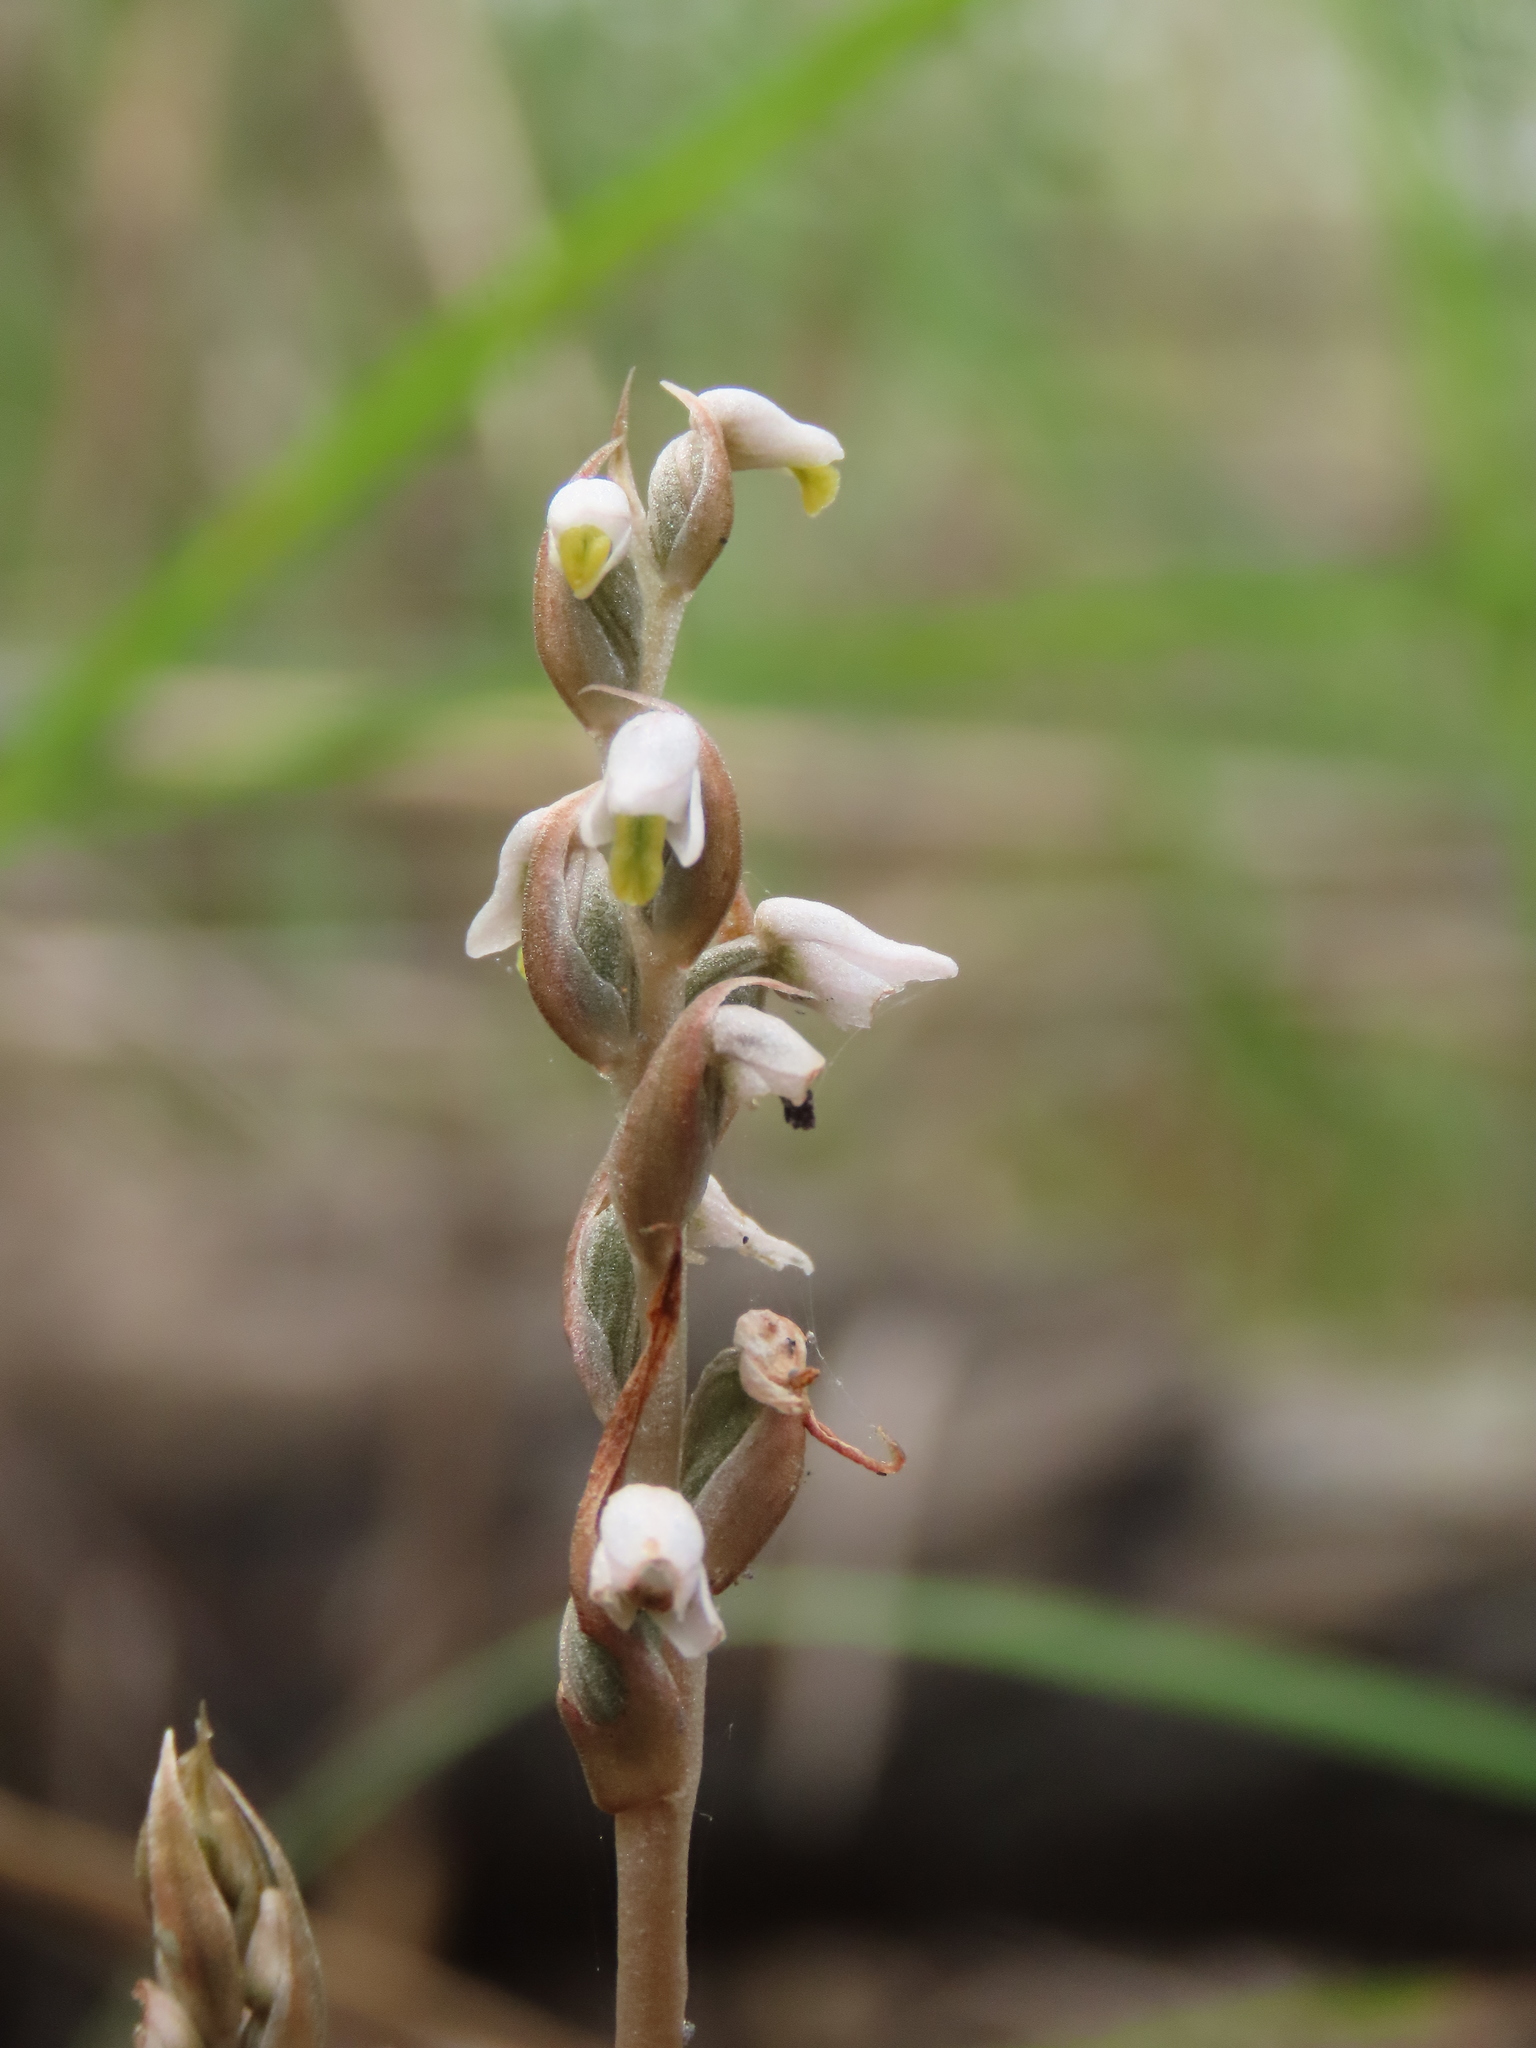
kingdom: Plantae
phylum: Tracheophyta
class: Liliopsida
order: Asparagales
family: Orchidaceae
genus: Zeuxine
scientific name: Zeuxine strateumatica
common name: Soldier's orchid
